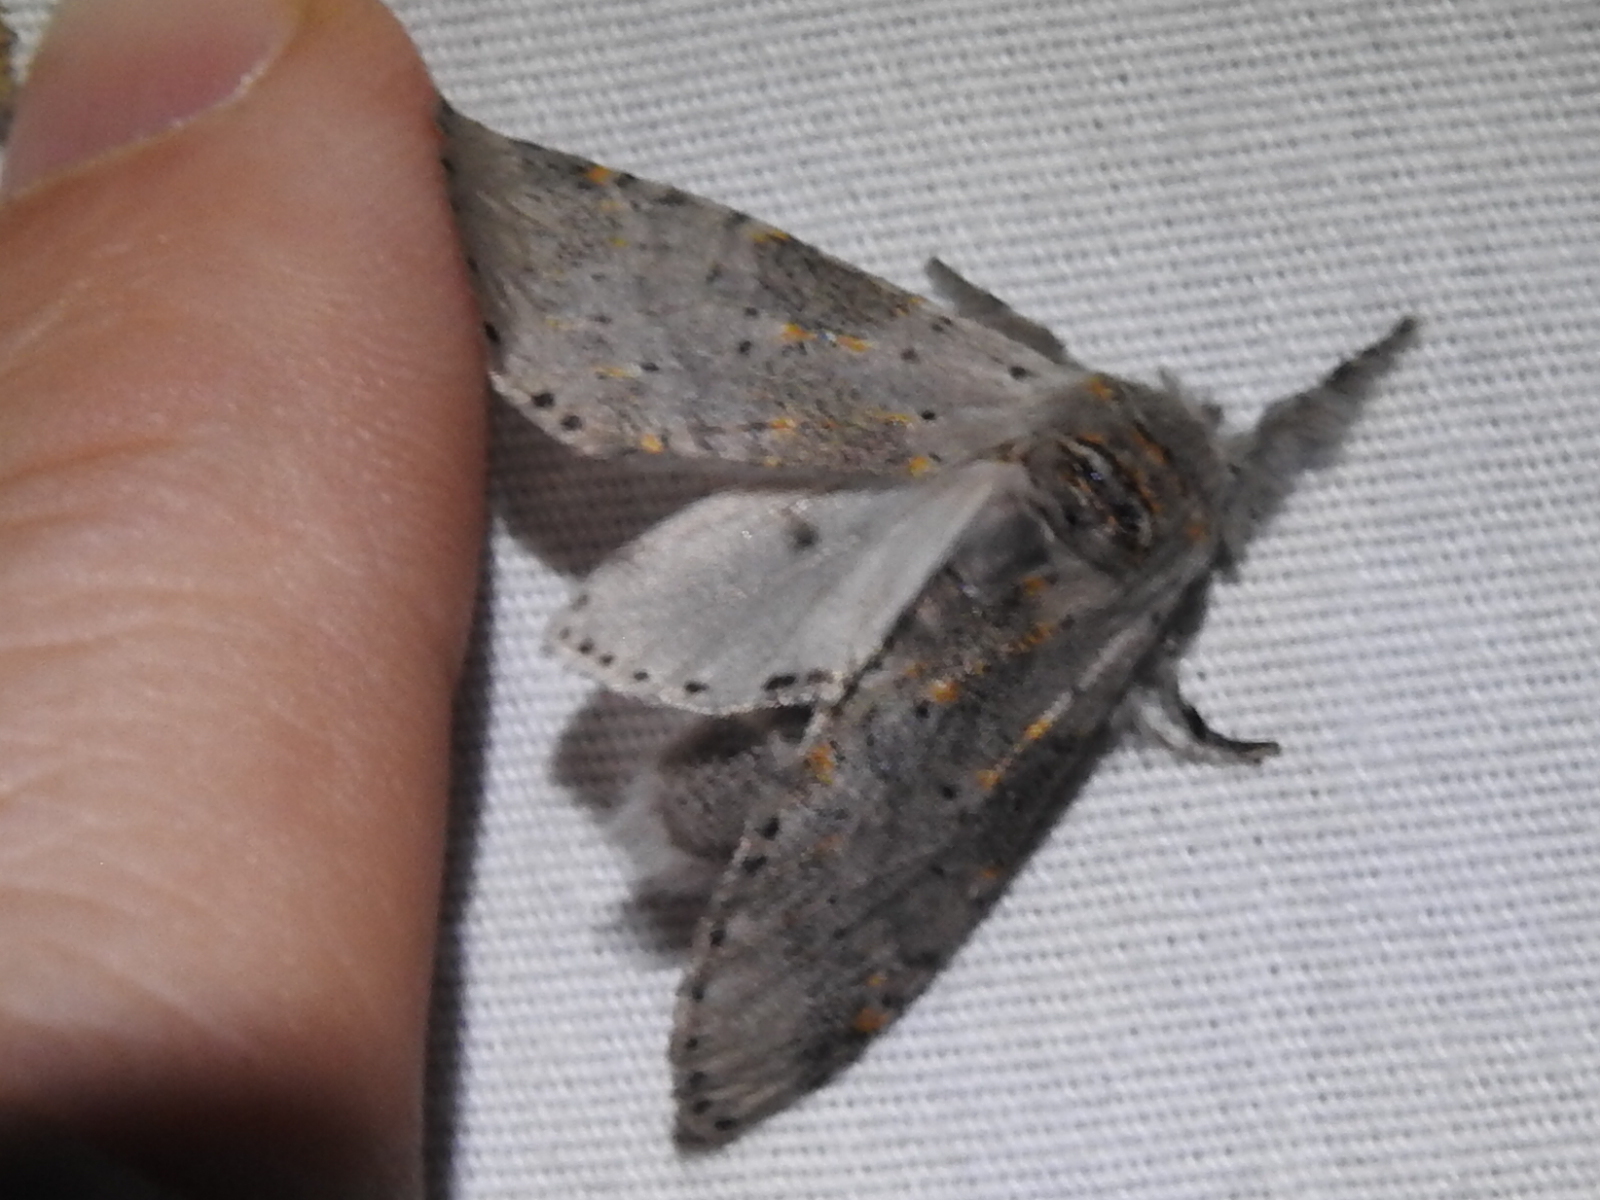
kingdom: Animalia
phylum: Arthropoda
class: Insecta
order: Lepidoptera
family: Notodontidae
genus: Furcula
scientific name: Furcula cinerea
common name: Gray furcula
